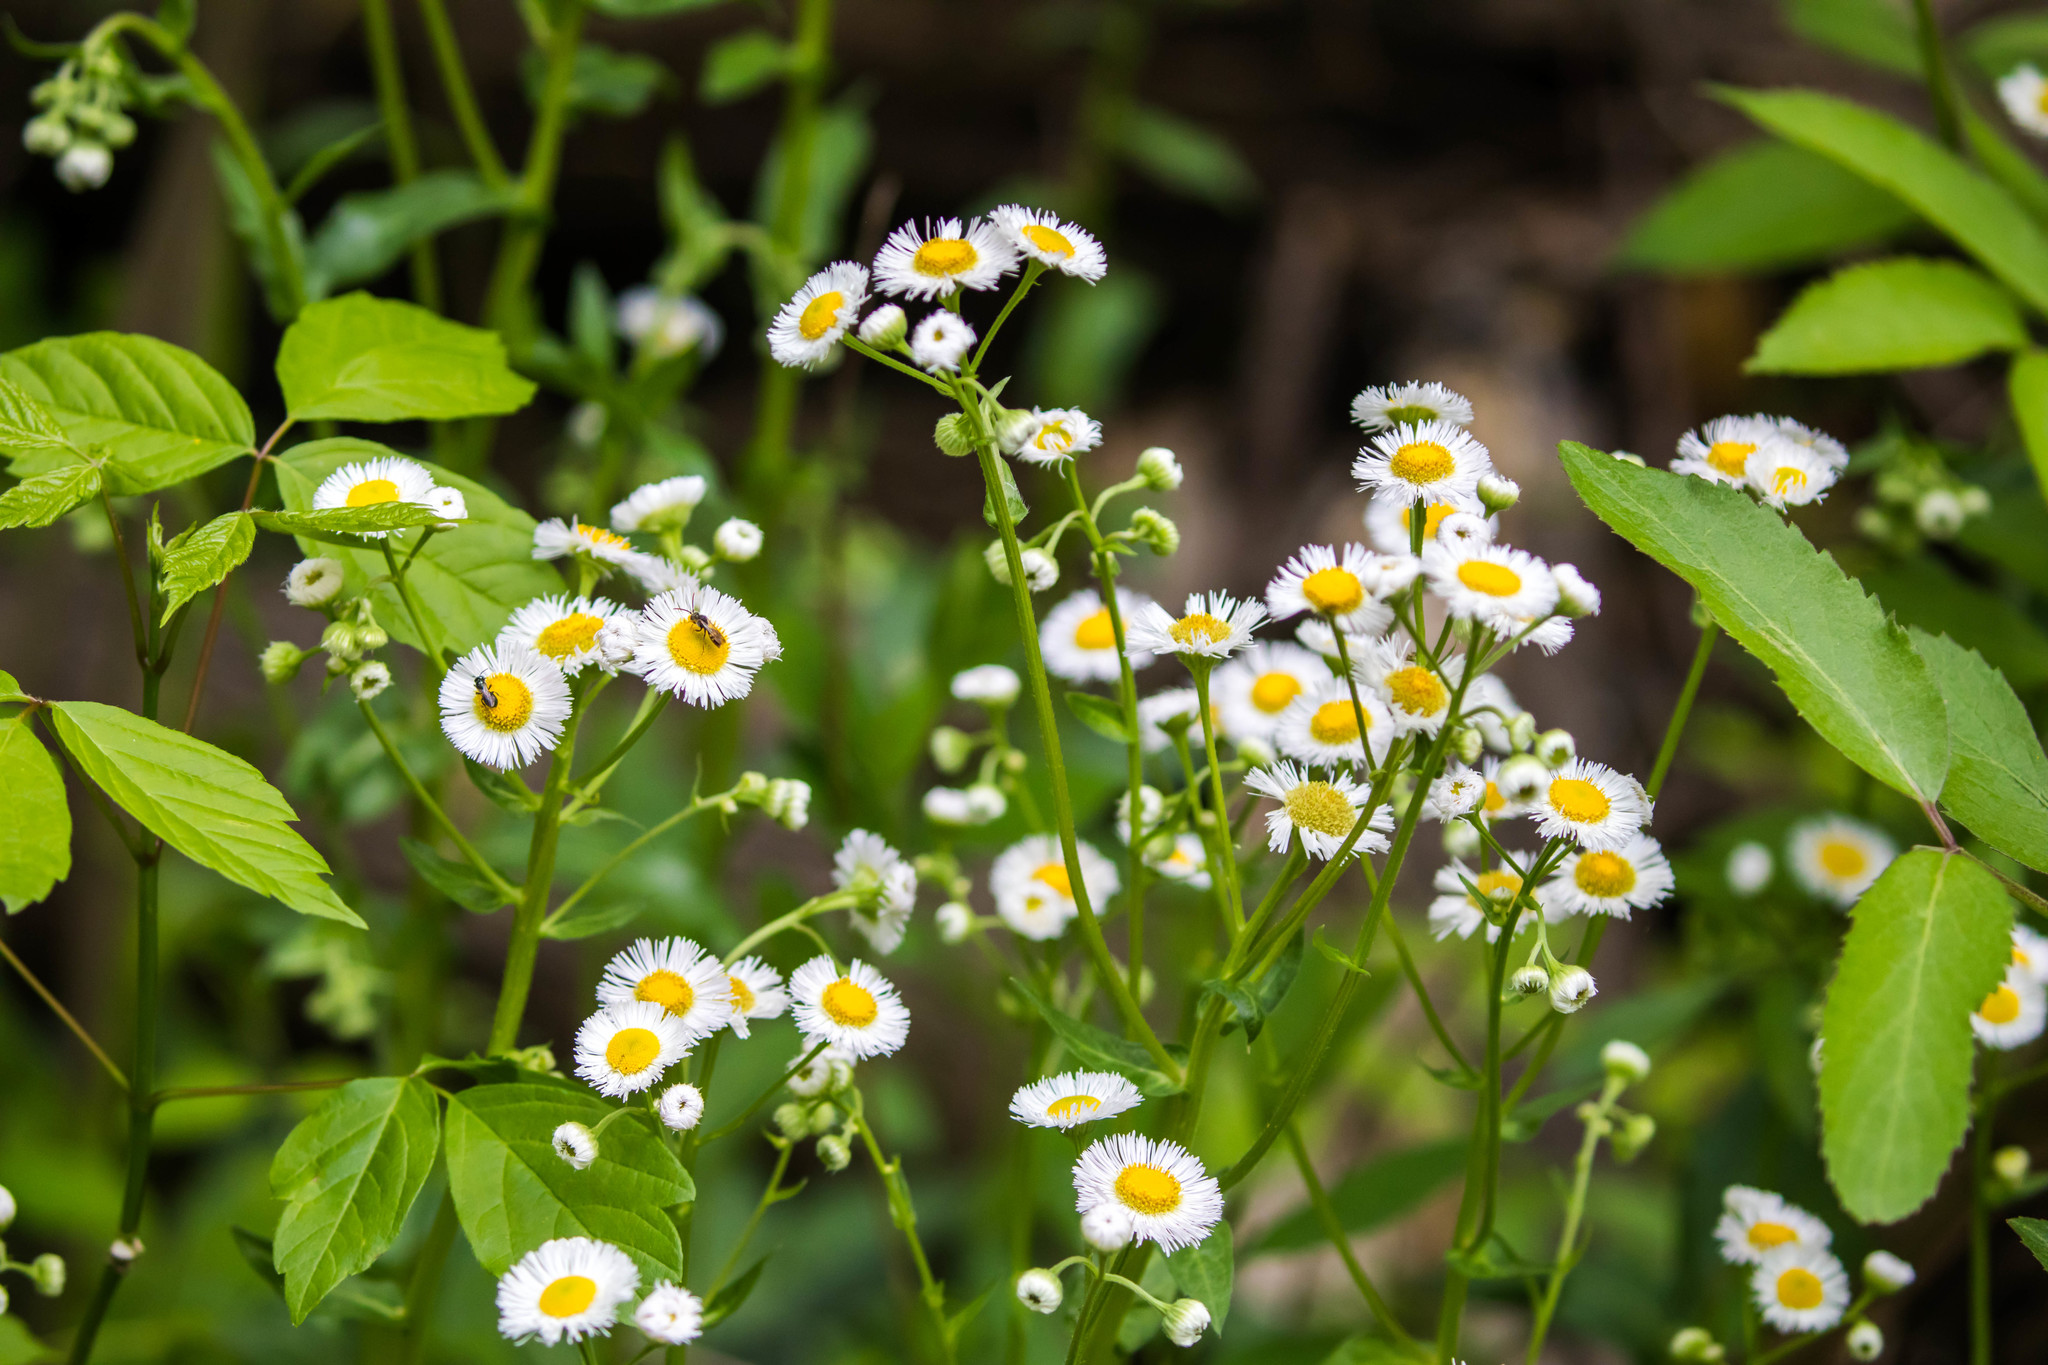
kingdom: Plantae
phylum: Tracheophyta
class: Magnoliopsida
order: Asterales
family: Asteraceae
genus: Erigeron
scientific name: Erigeron philadelphicus
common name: Robin's-plantain
